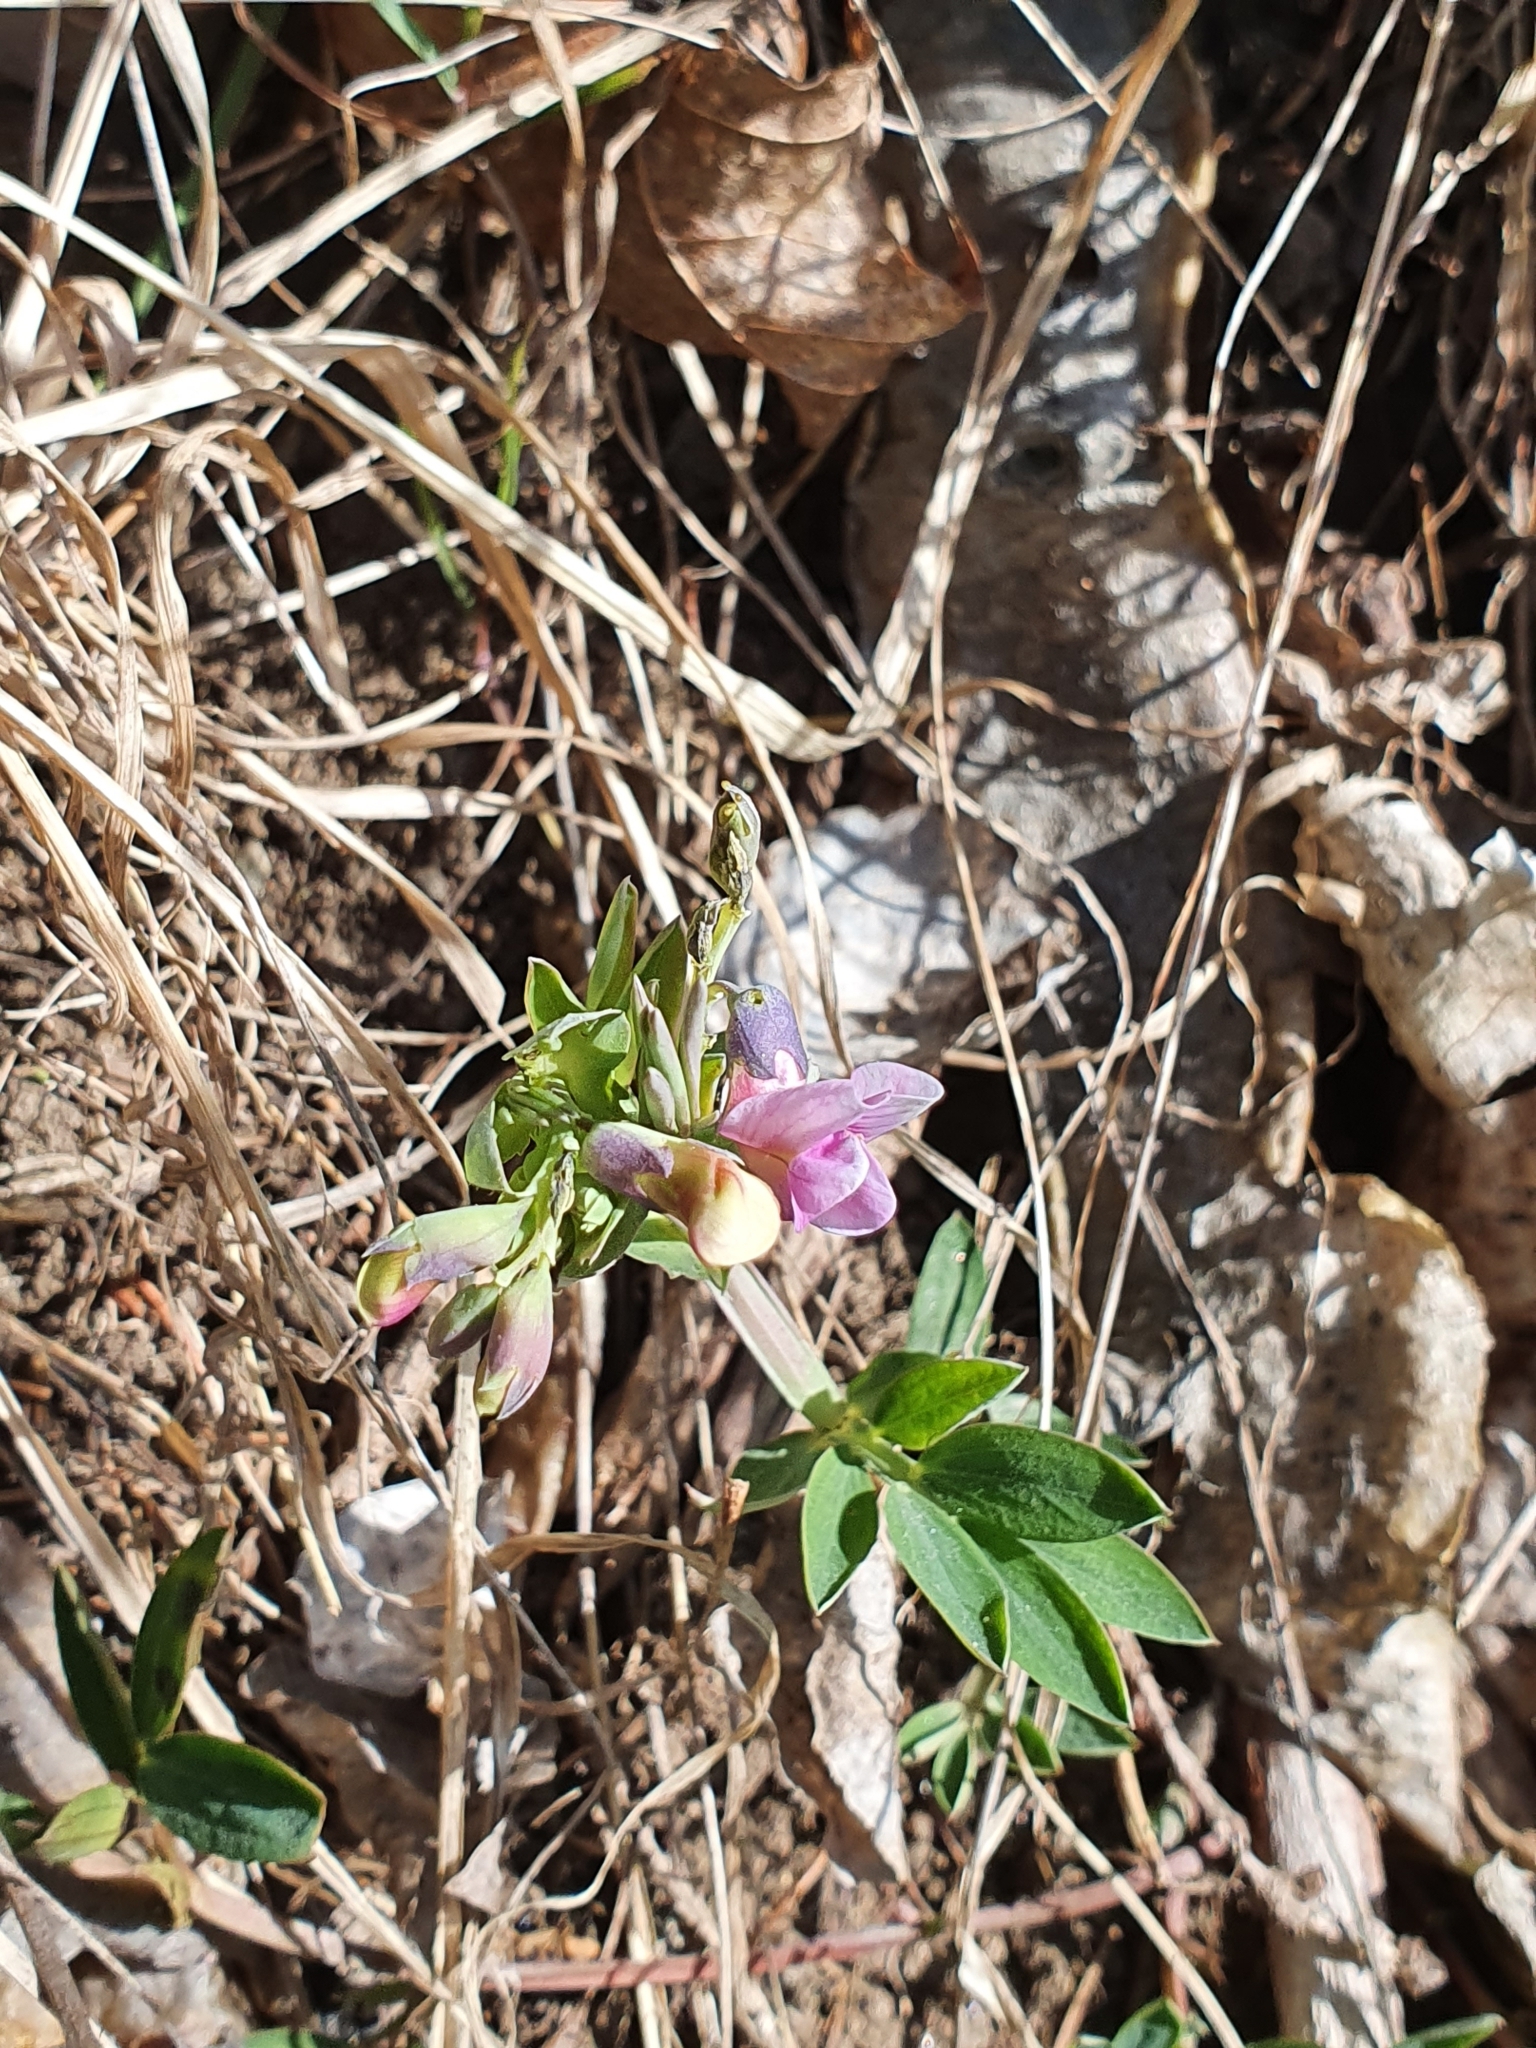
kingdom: Plantae
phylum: Tracheophyta
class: Magnoliopsida
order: Fabales
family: Fabaceae
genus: Lathyrus
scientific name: Lathyrus linifolius
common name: Bitter-vetch
